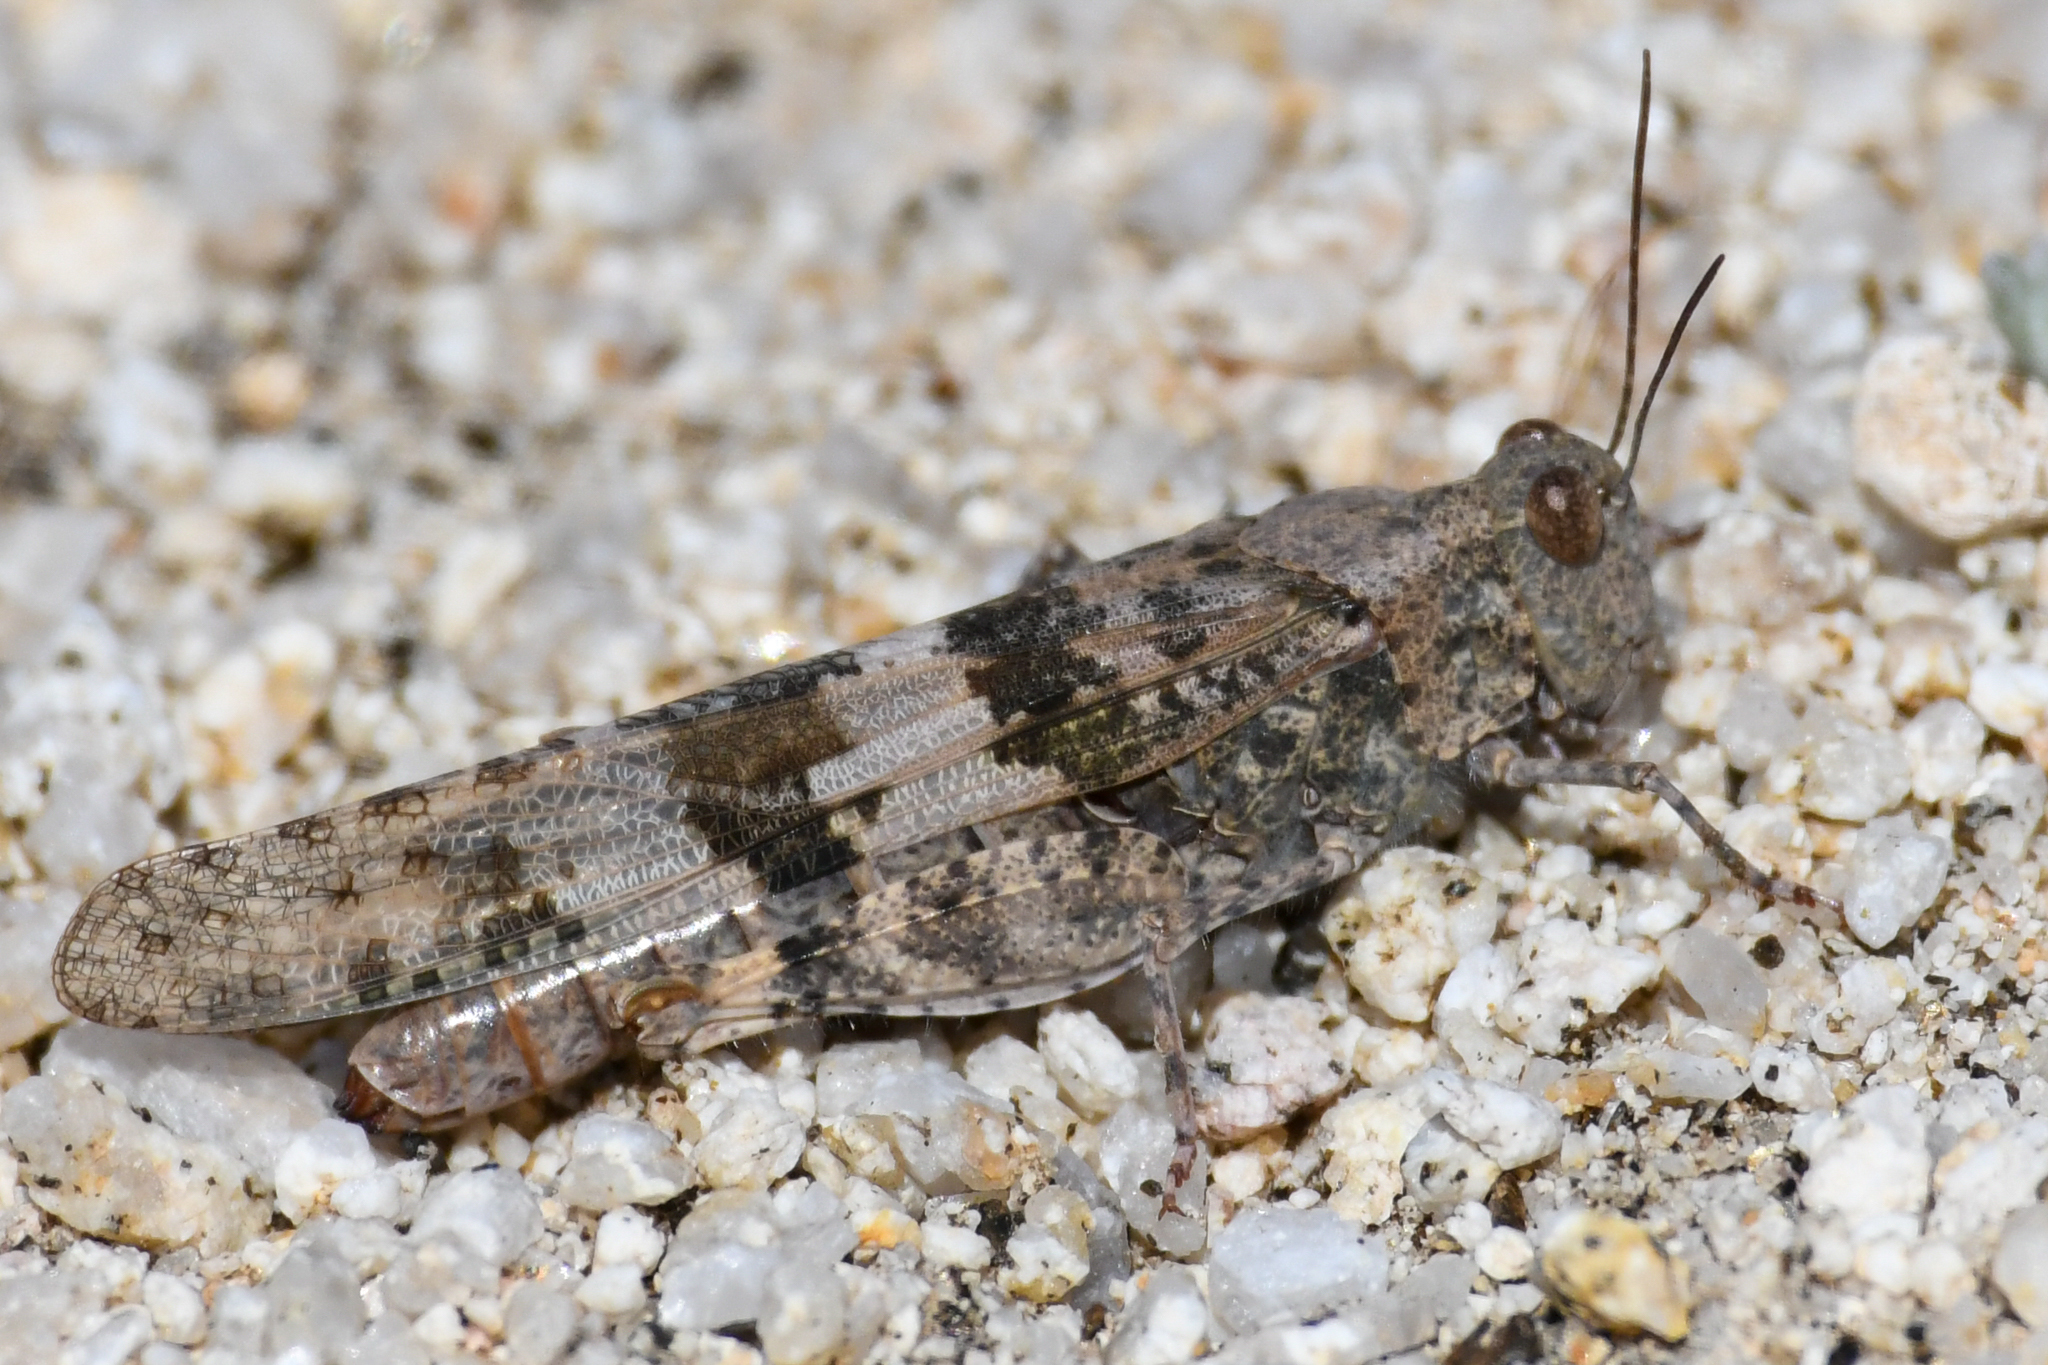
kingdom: Animalia
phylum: Arthropoda
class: Insecta
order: Orthoptera
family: Acrididae
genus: Trimerotropis
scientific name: Trimerotropis pallidipennis
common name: Pallid-winged grasshopper
